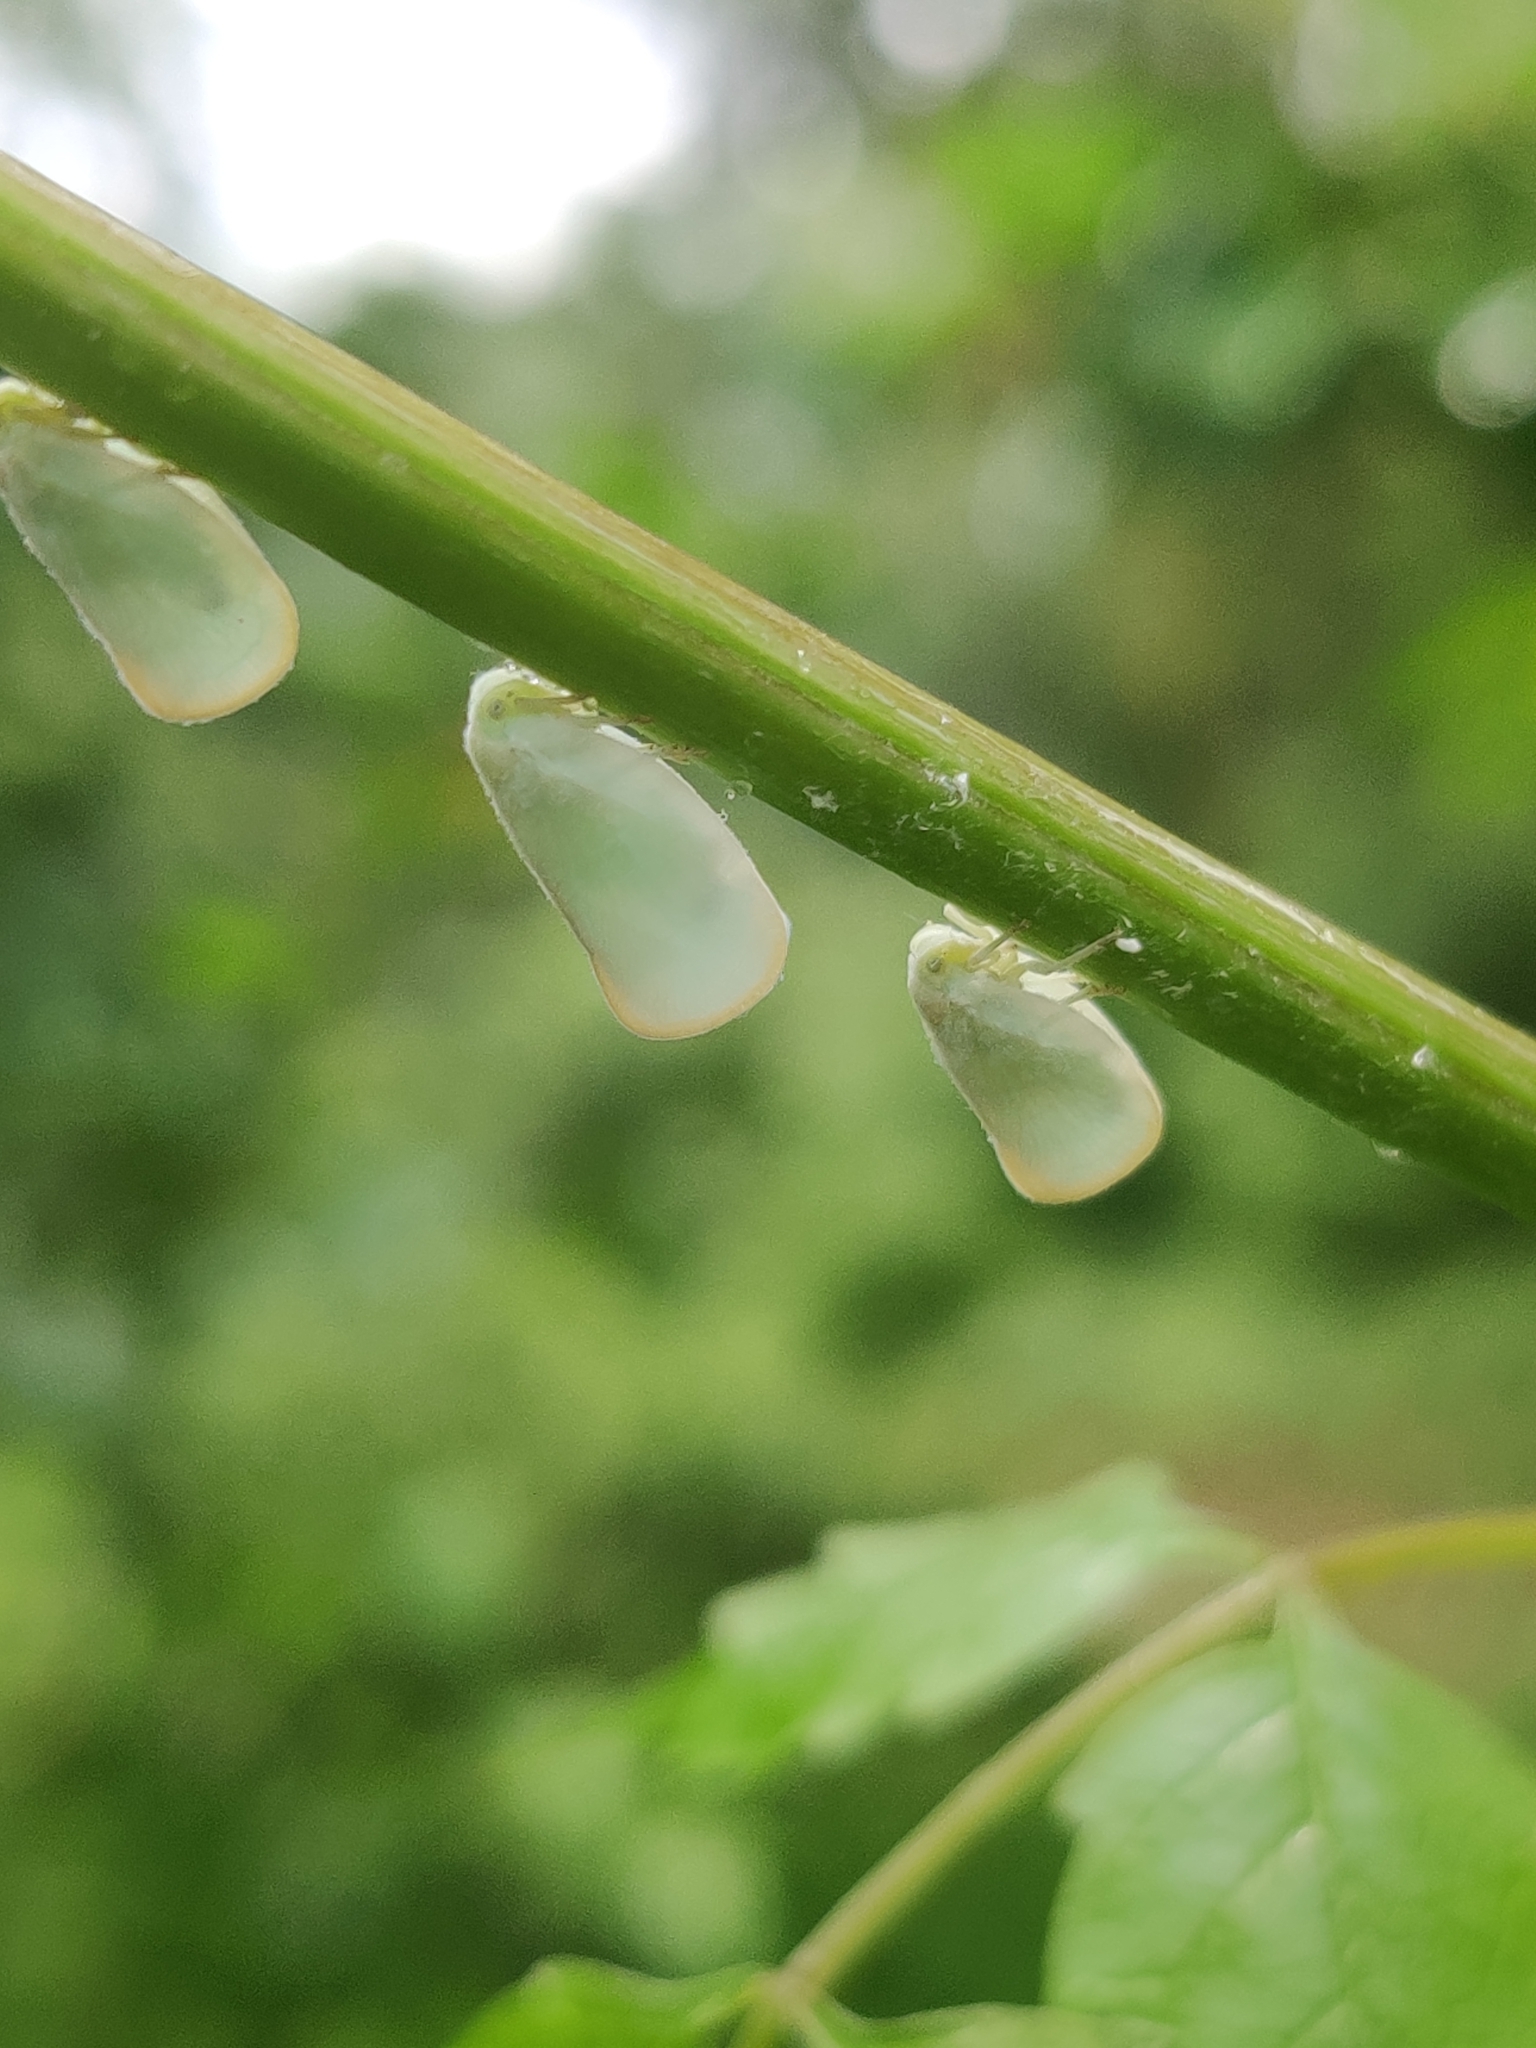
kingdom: Animalia
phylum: Arthropoda
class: Insecta
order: Hemiptera
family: Flatidae
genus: Ormenoides
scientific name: Ormenoides venusta
